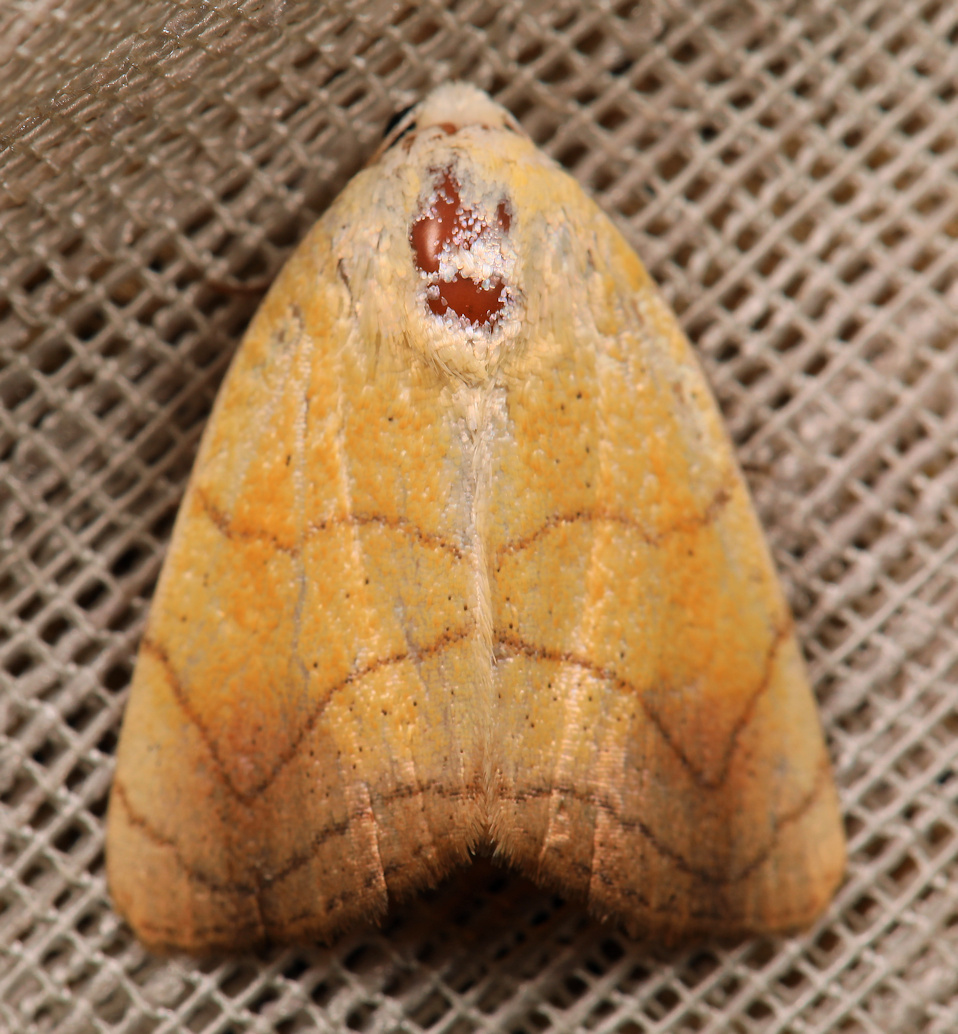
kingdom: Animalia
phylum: Arthropoda
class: Insecta
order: Lepidoptera
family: Nolidae
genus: Xanthodes
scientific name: Xanthodes albago
